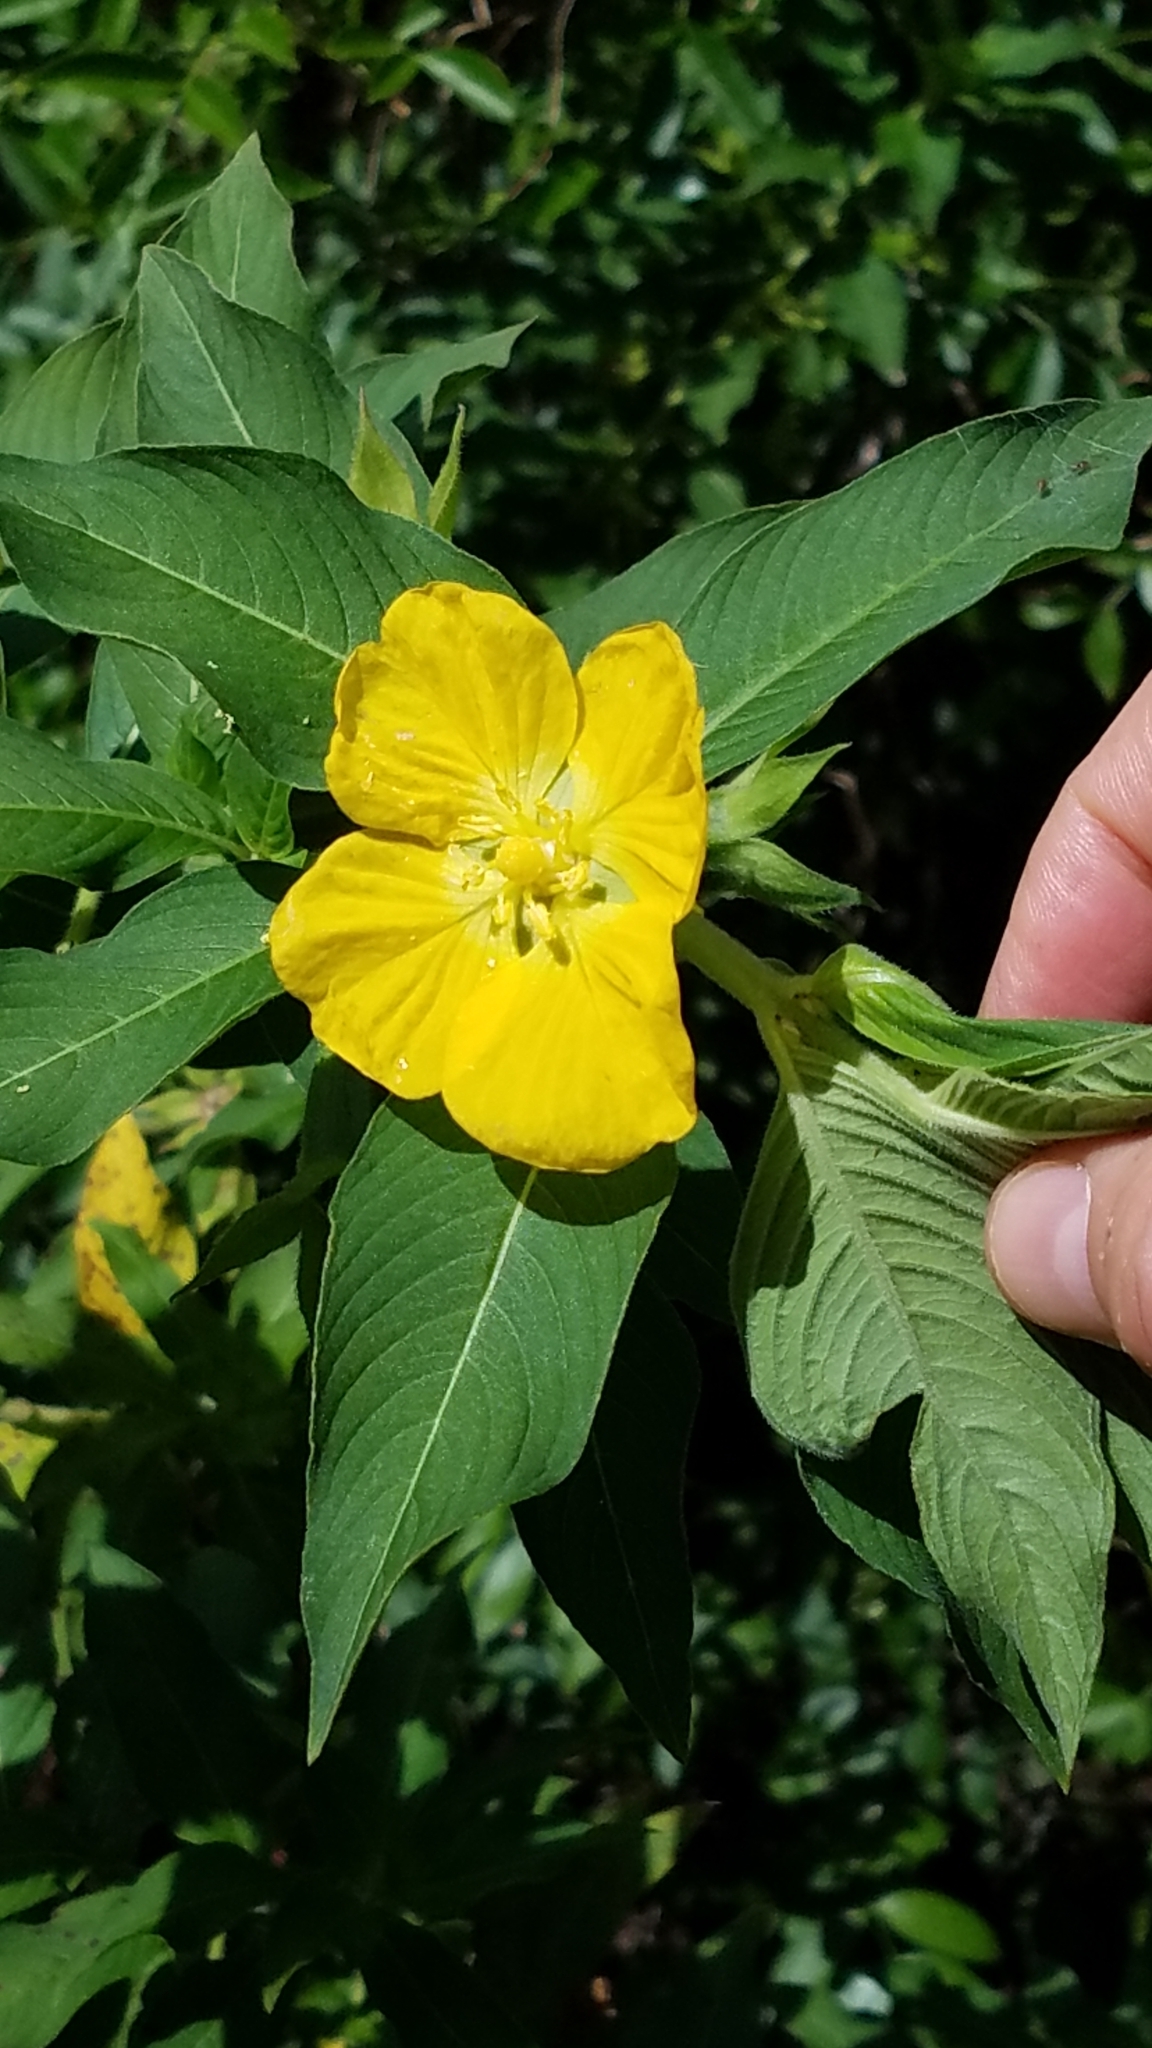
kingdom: Plantae
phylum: Tracheophyta
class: Magnoliopsida
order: Myrtales
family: Onagraceae
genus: Ludwigia
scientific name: Ludwigia peruviana
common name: Peruvian primrose-willow
